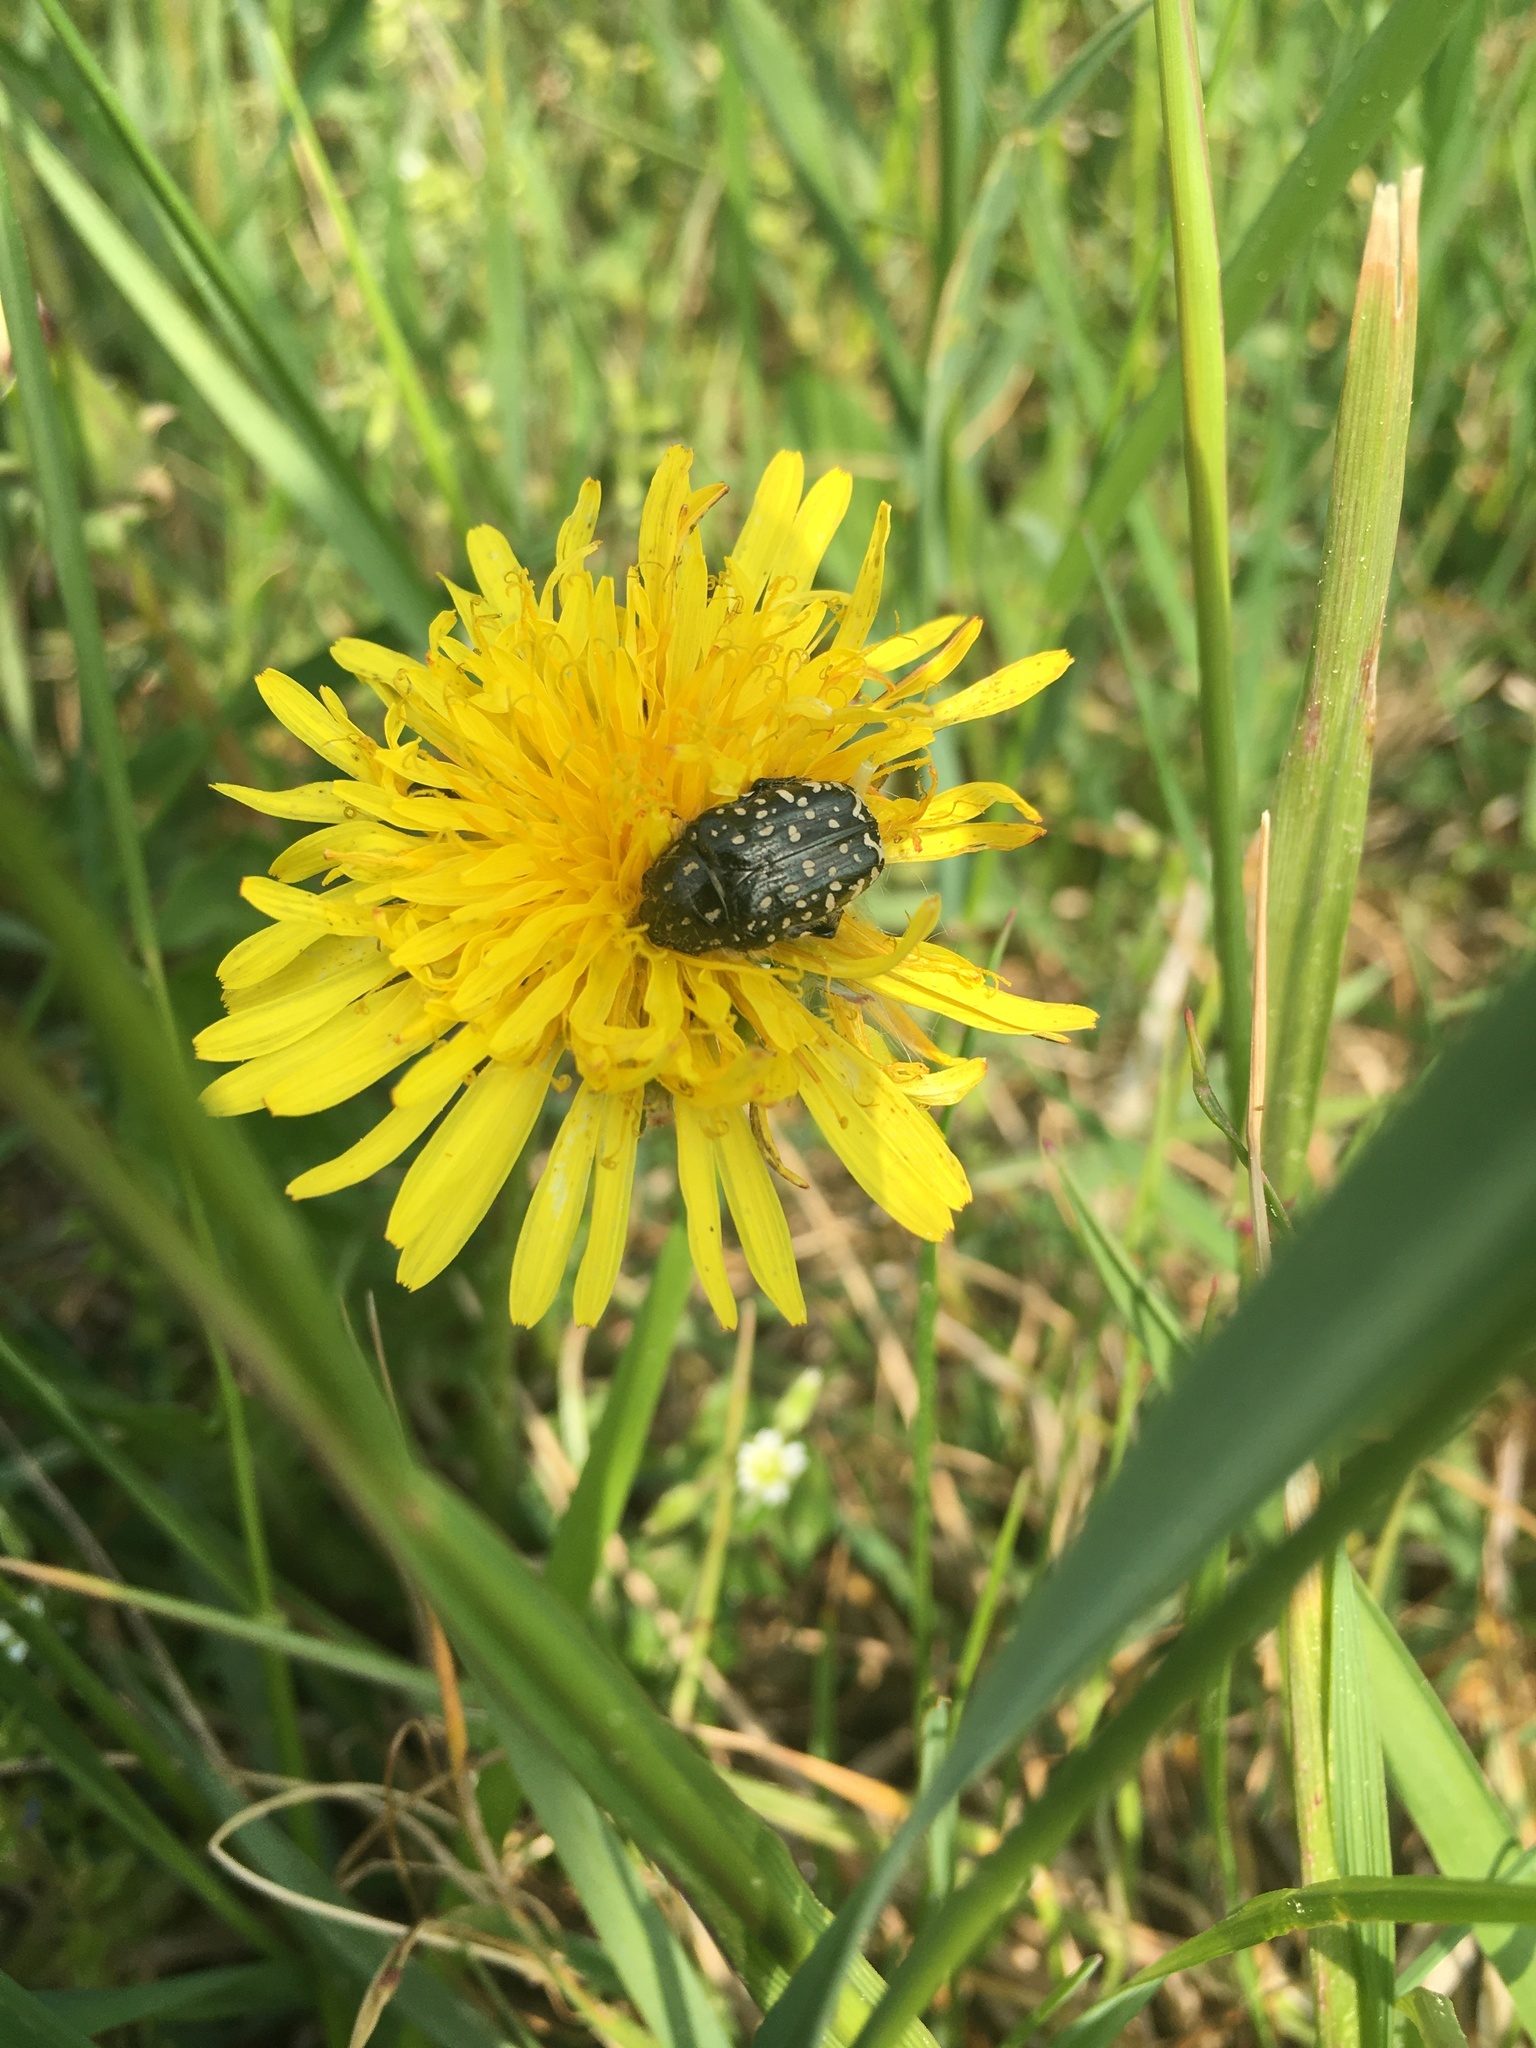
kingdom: Animalia
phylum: Arthropoda
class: Insecta
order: Coleoptera
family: Scarabaeidae
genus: Oxythyrea
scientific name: Oxythyrea funesta
